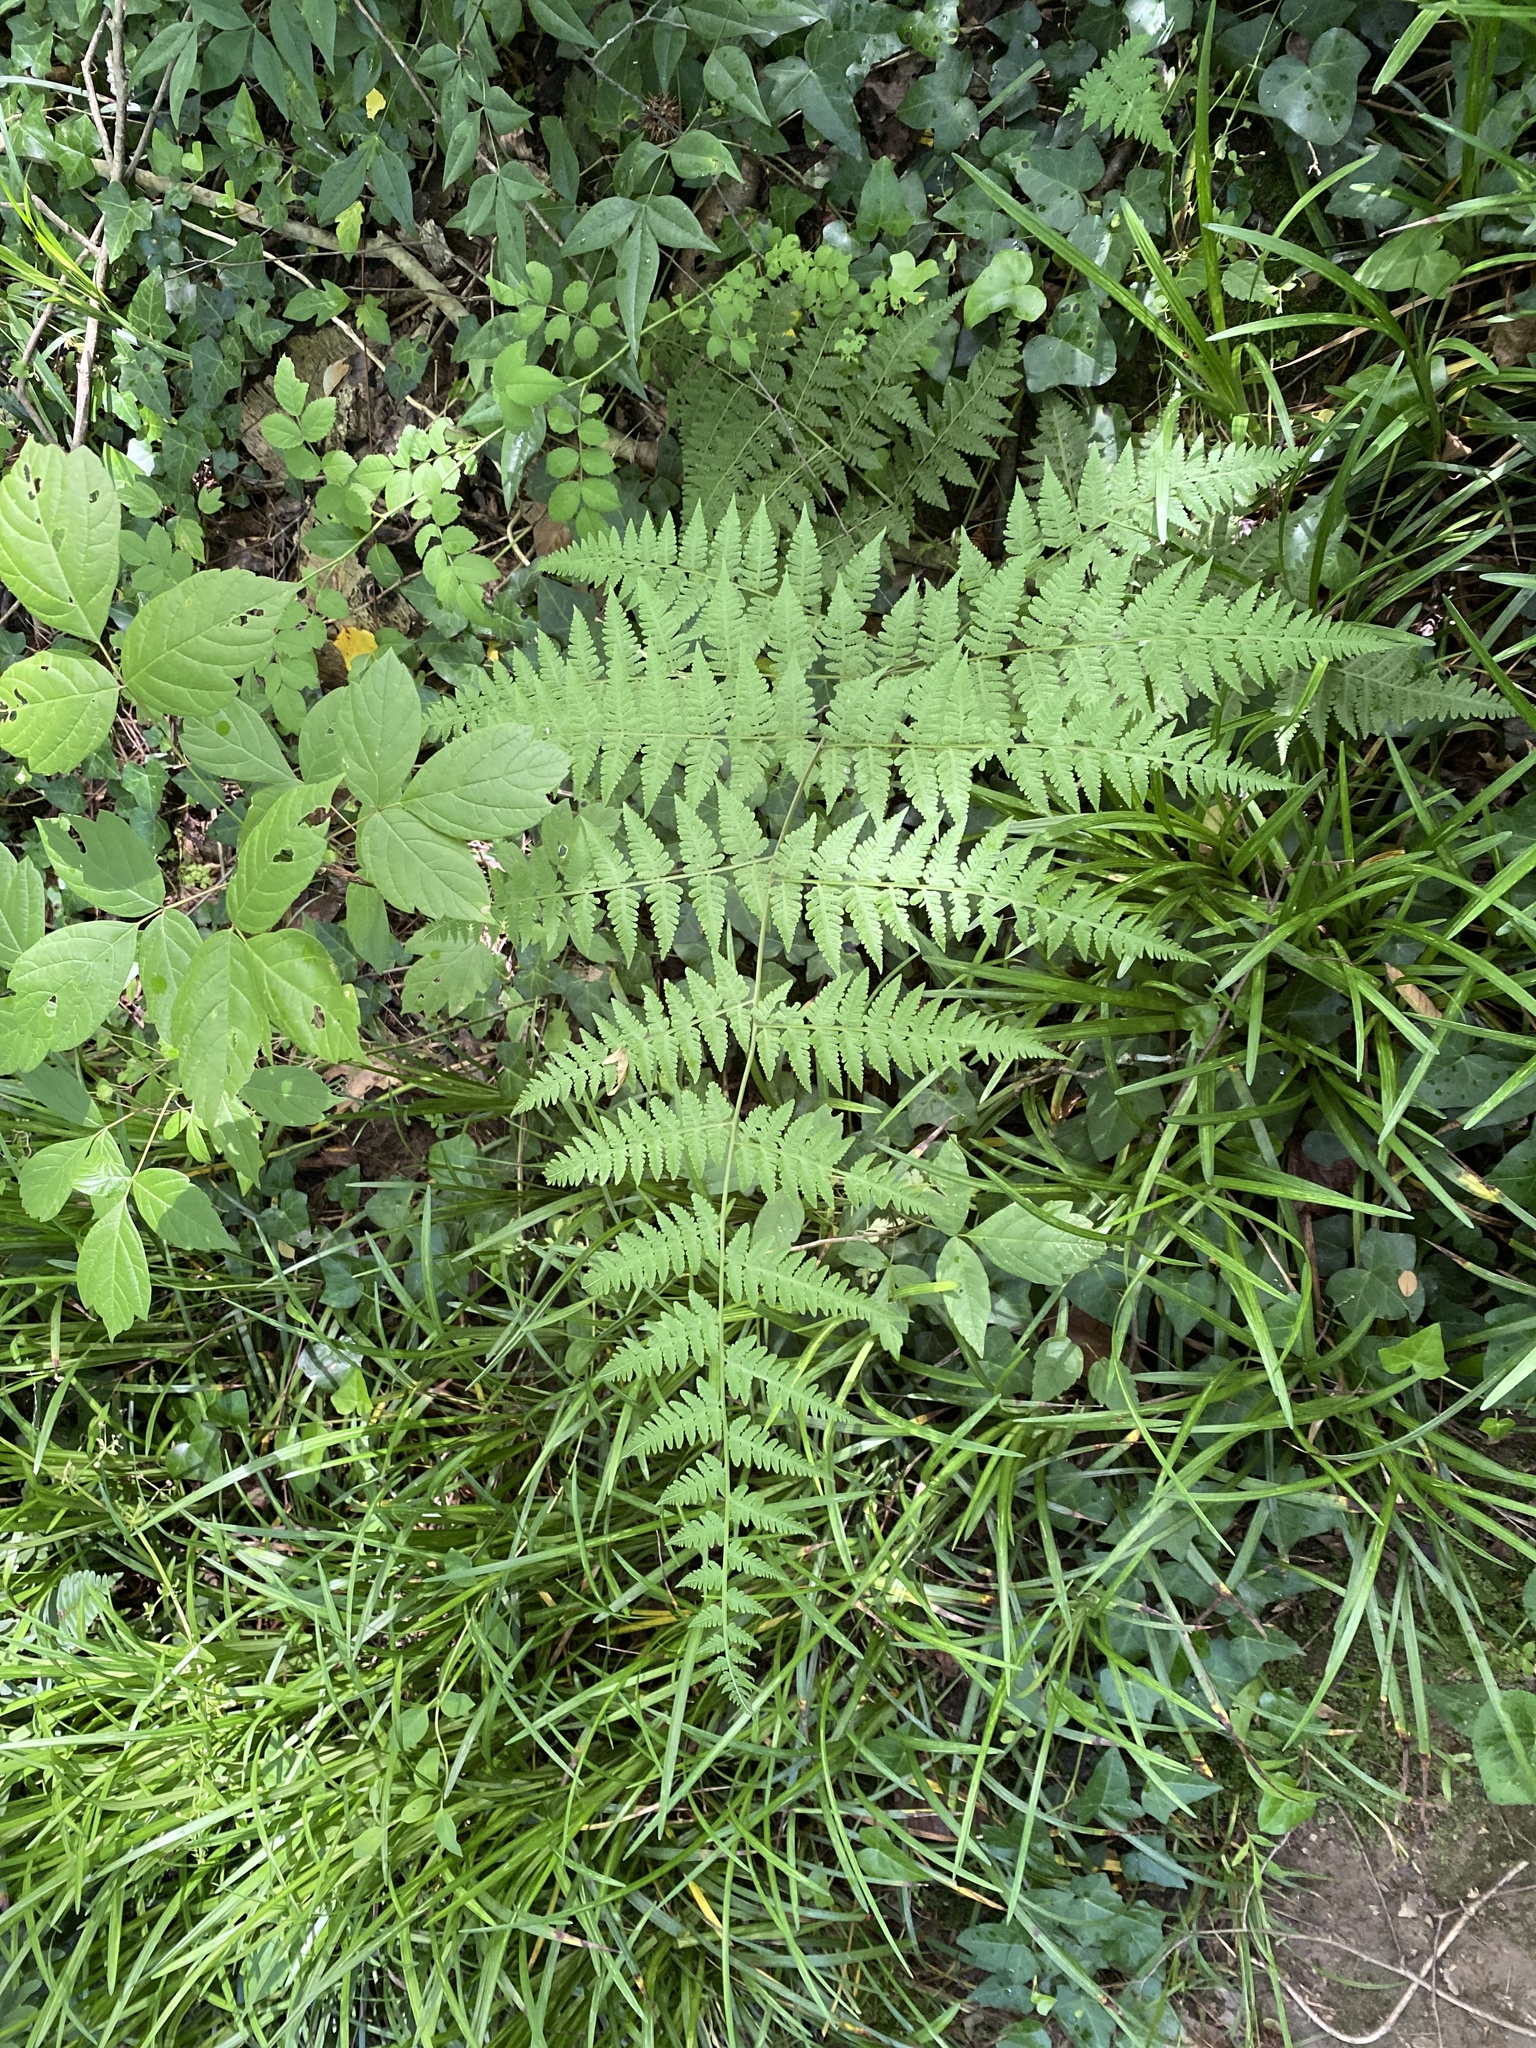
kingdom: Plantae
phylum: Tracheophyta
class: Polypodiopsida
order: Polypodiales
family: Thelypteridaceae
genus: Macrothelypteris
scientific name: Macrothelypteris torresiana
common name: Swordfern
